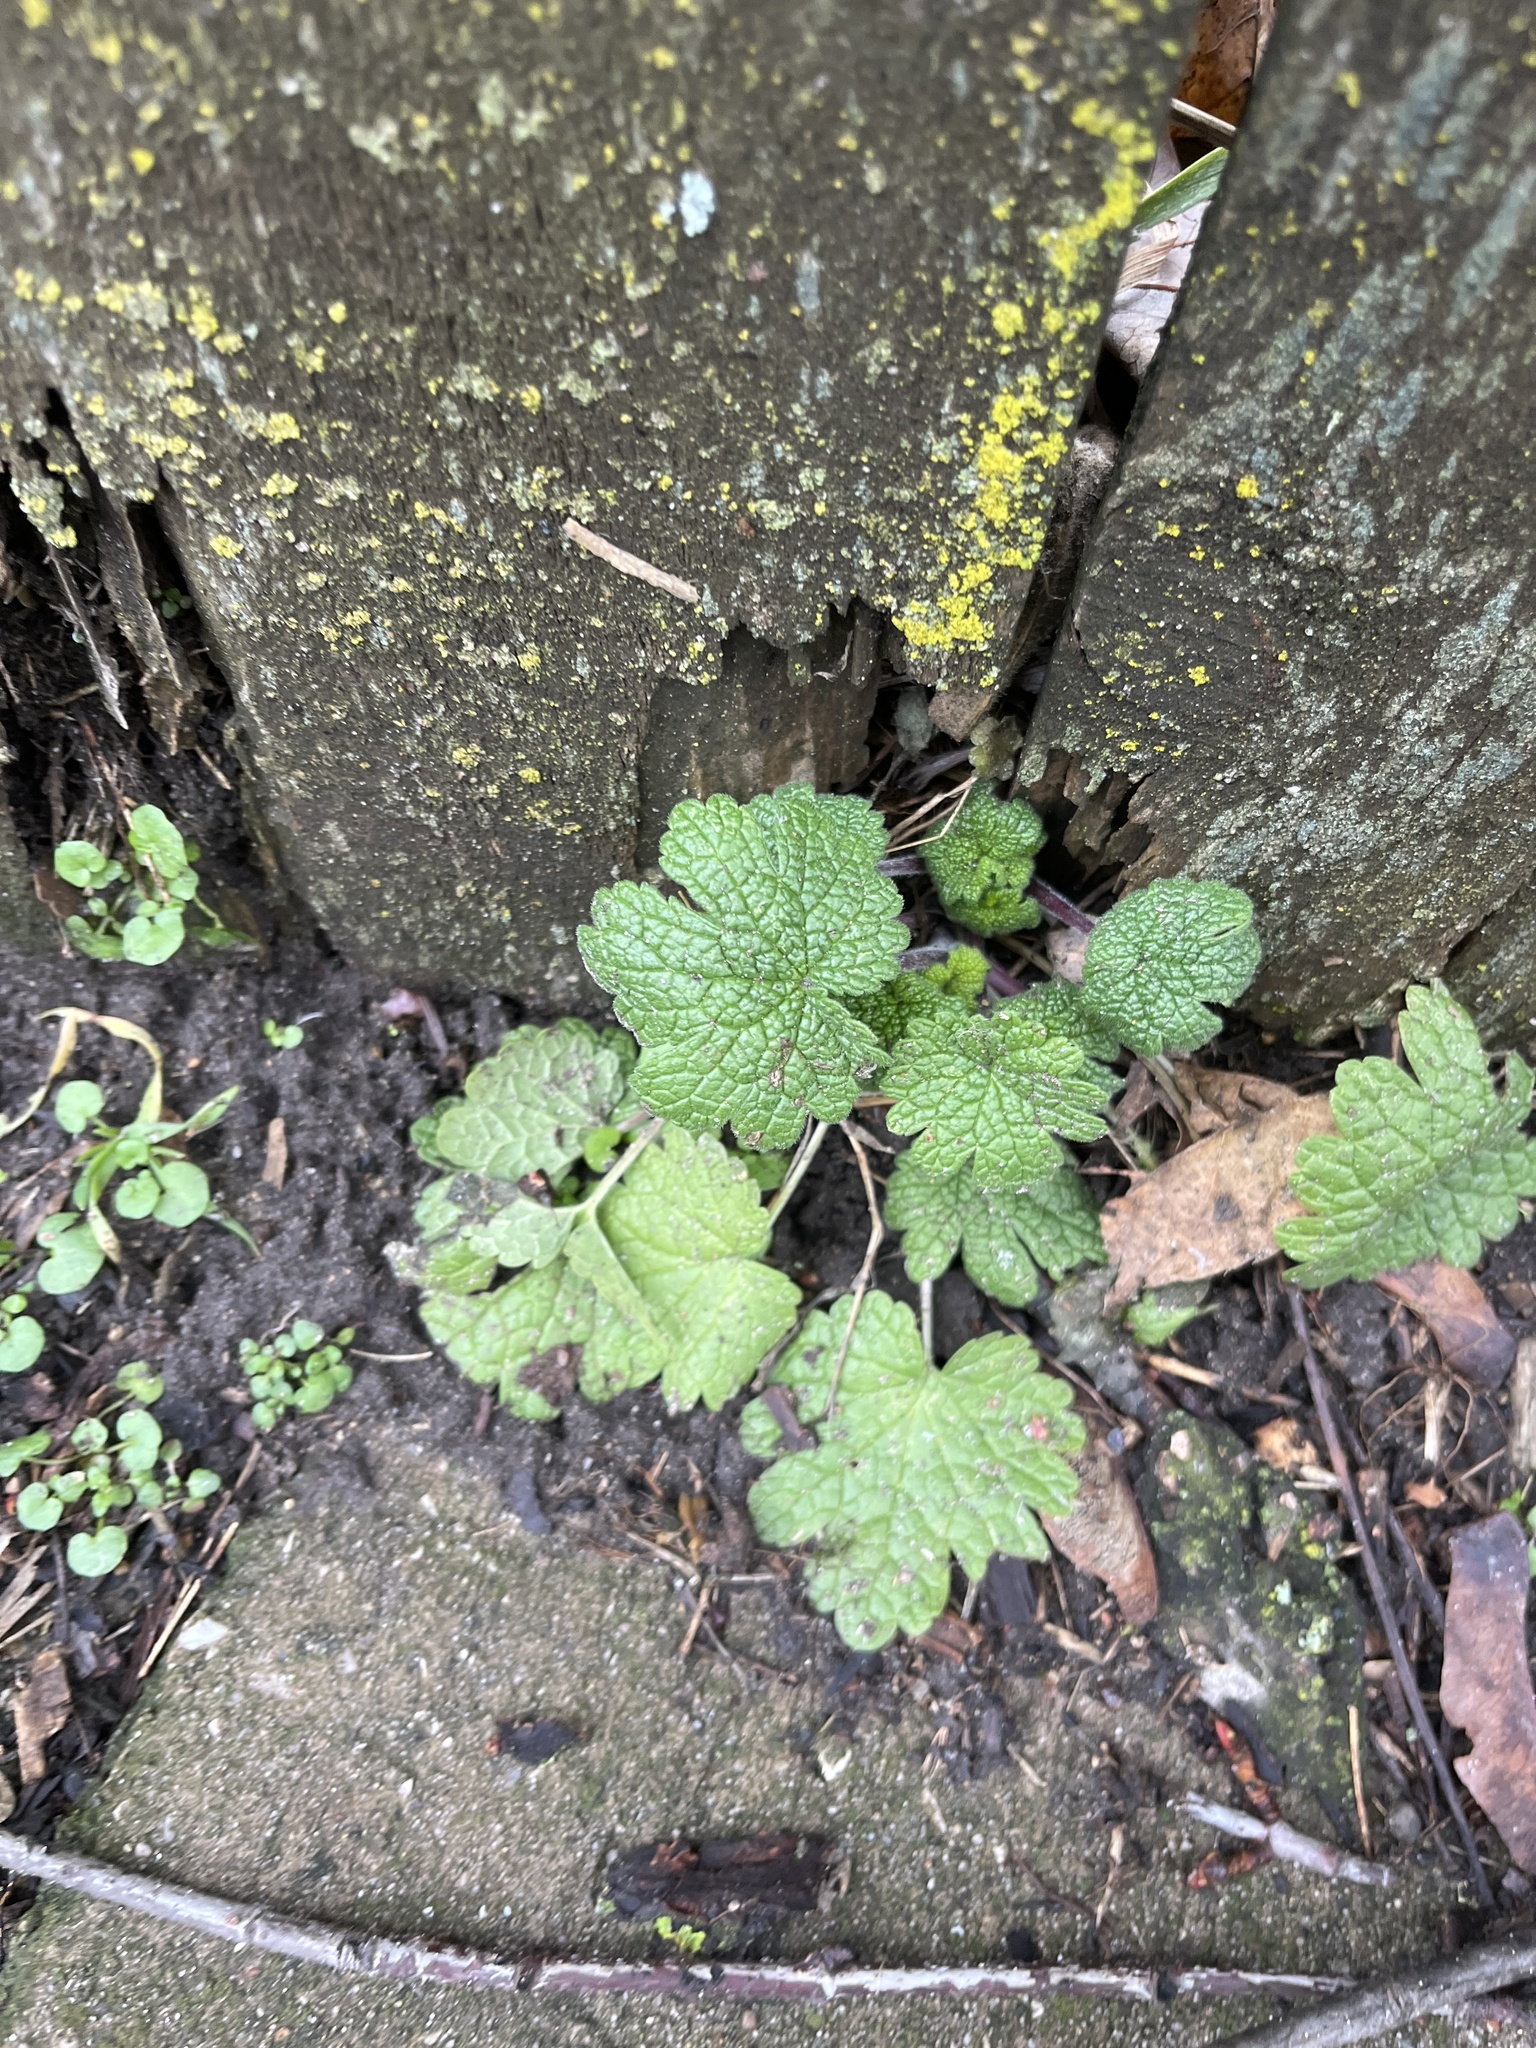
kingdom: Plantae
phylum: Tracheophyta
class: Magnoliopsida
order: Lamiales
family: Lamiaceae
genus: Leonurus
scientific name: Leonurus cardiaca
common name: Motherwort
